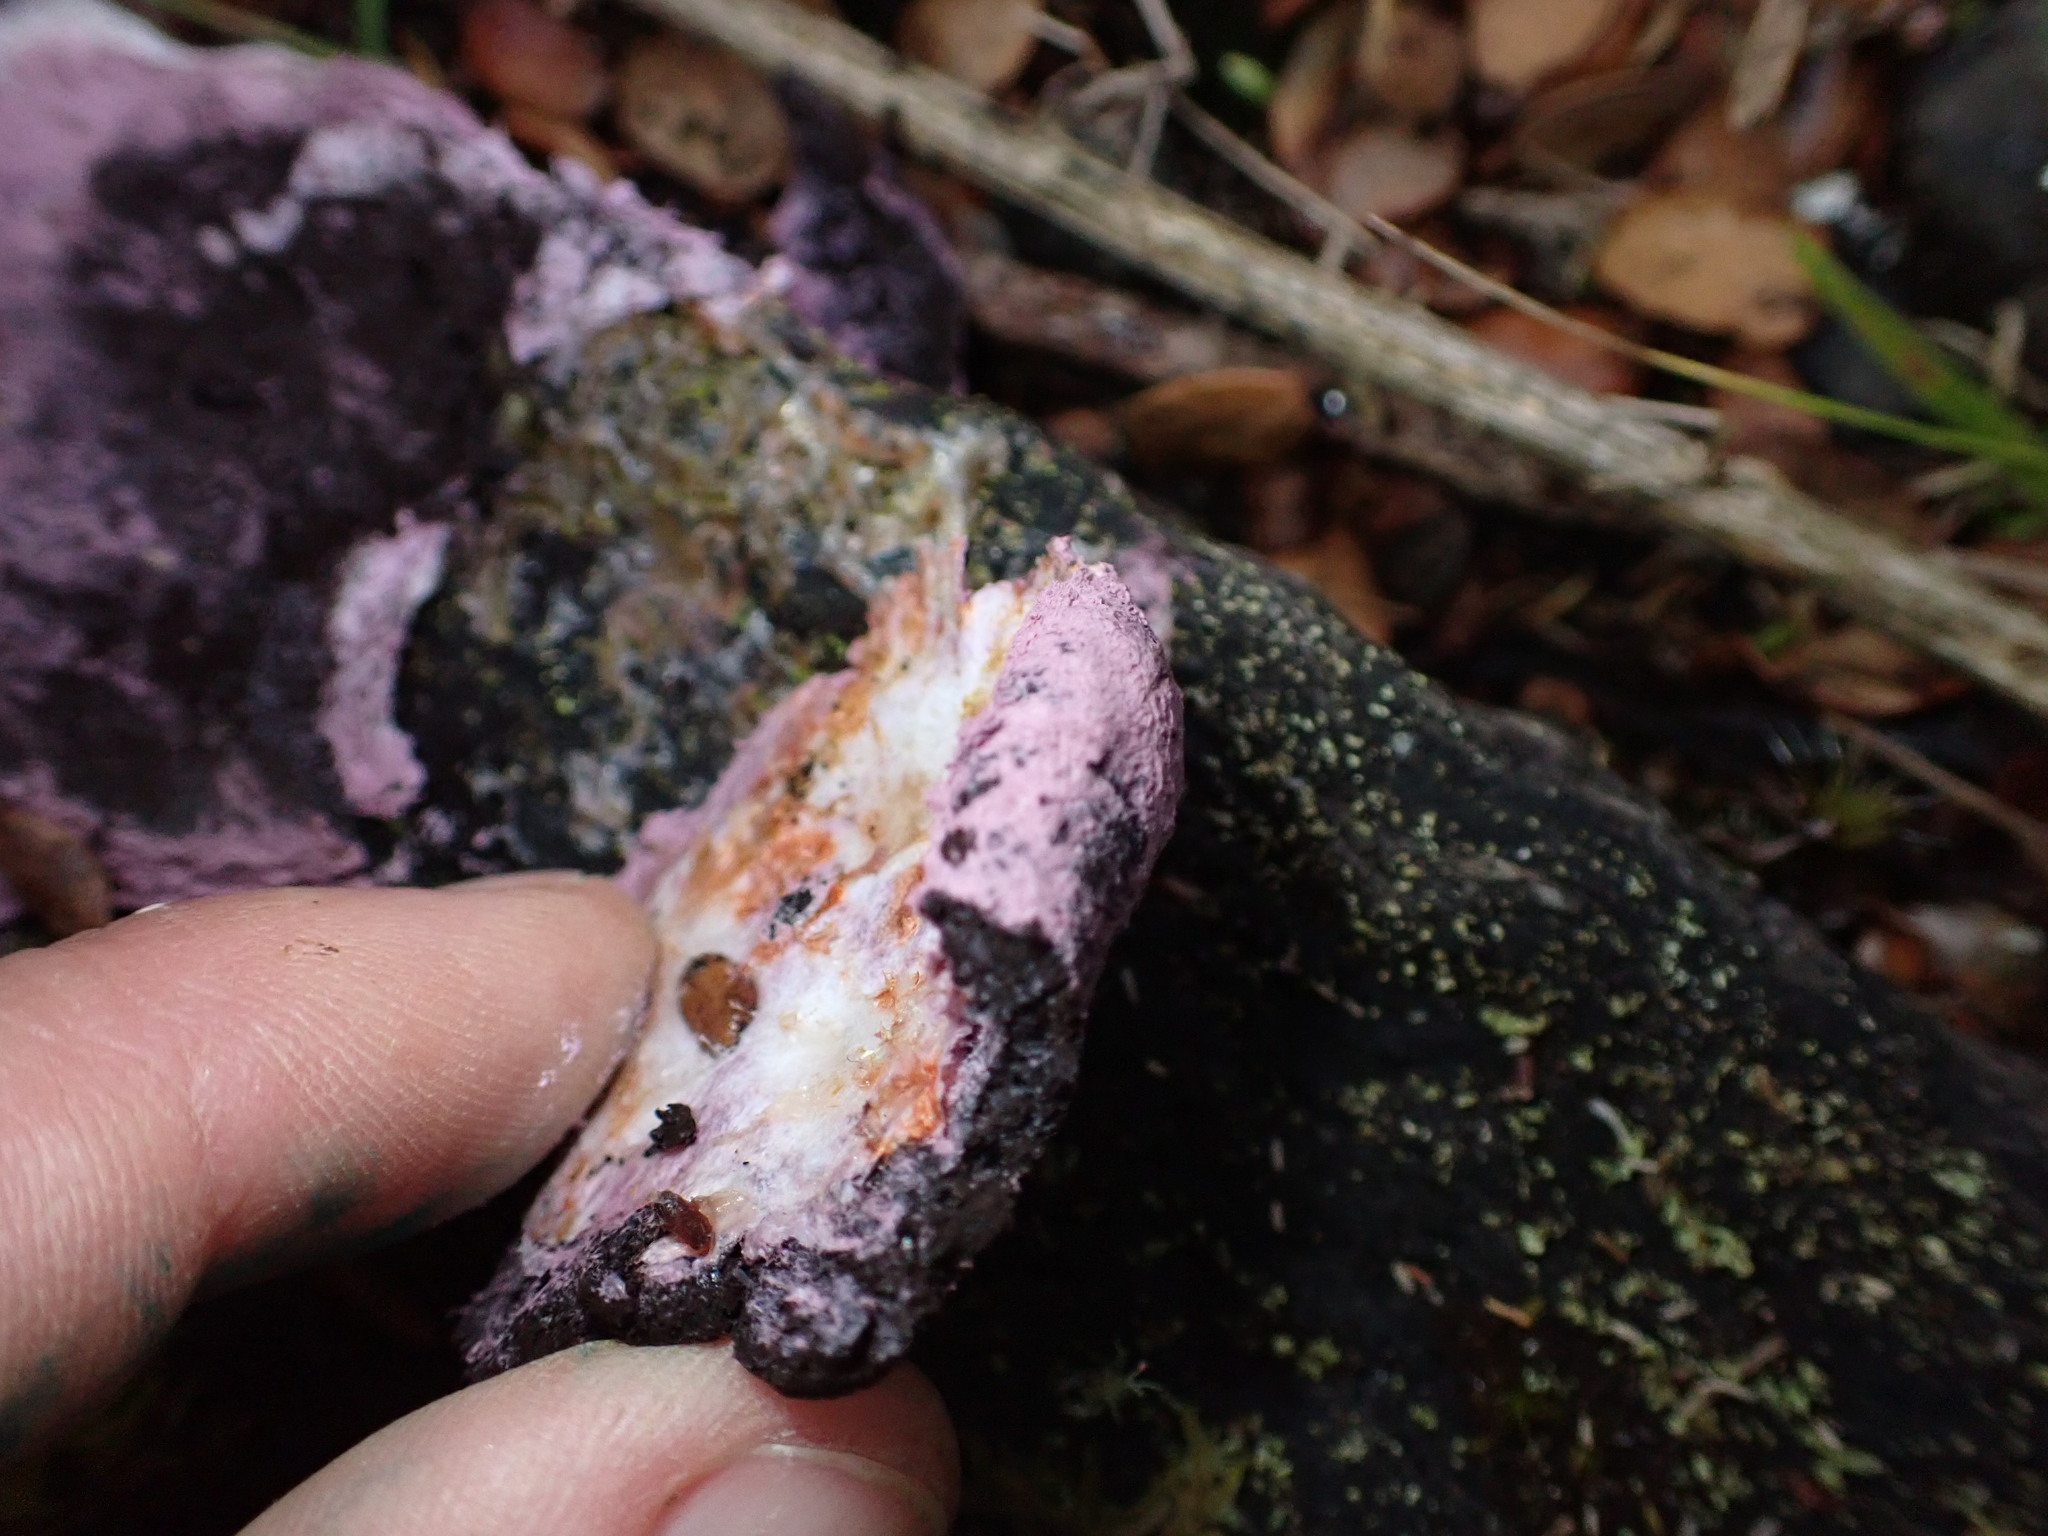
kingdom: Protozoa
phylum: Mycetozoa
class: Myxomycetes
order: Cribrariales
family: Tubiferaceae
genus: Reticularia
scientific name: Reticularia lycoperdon
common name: False puffball
